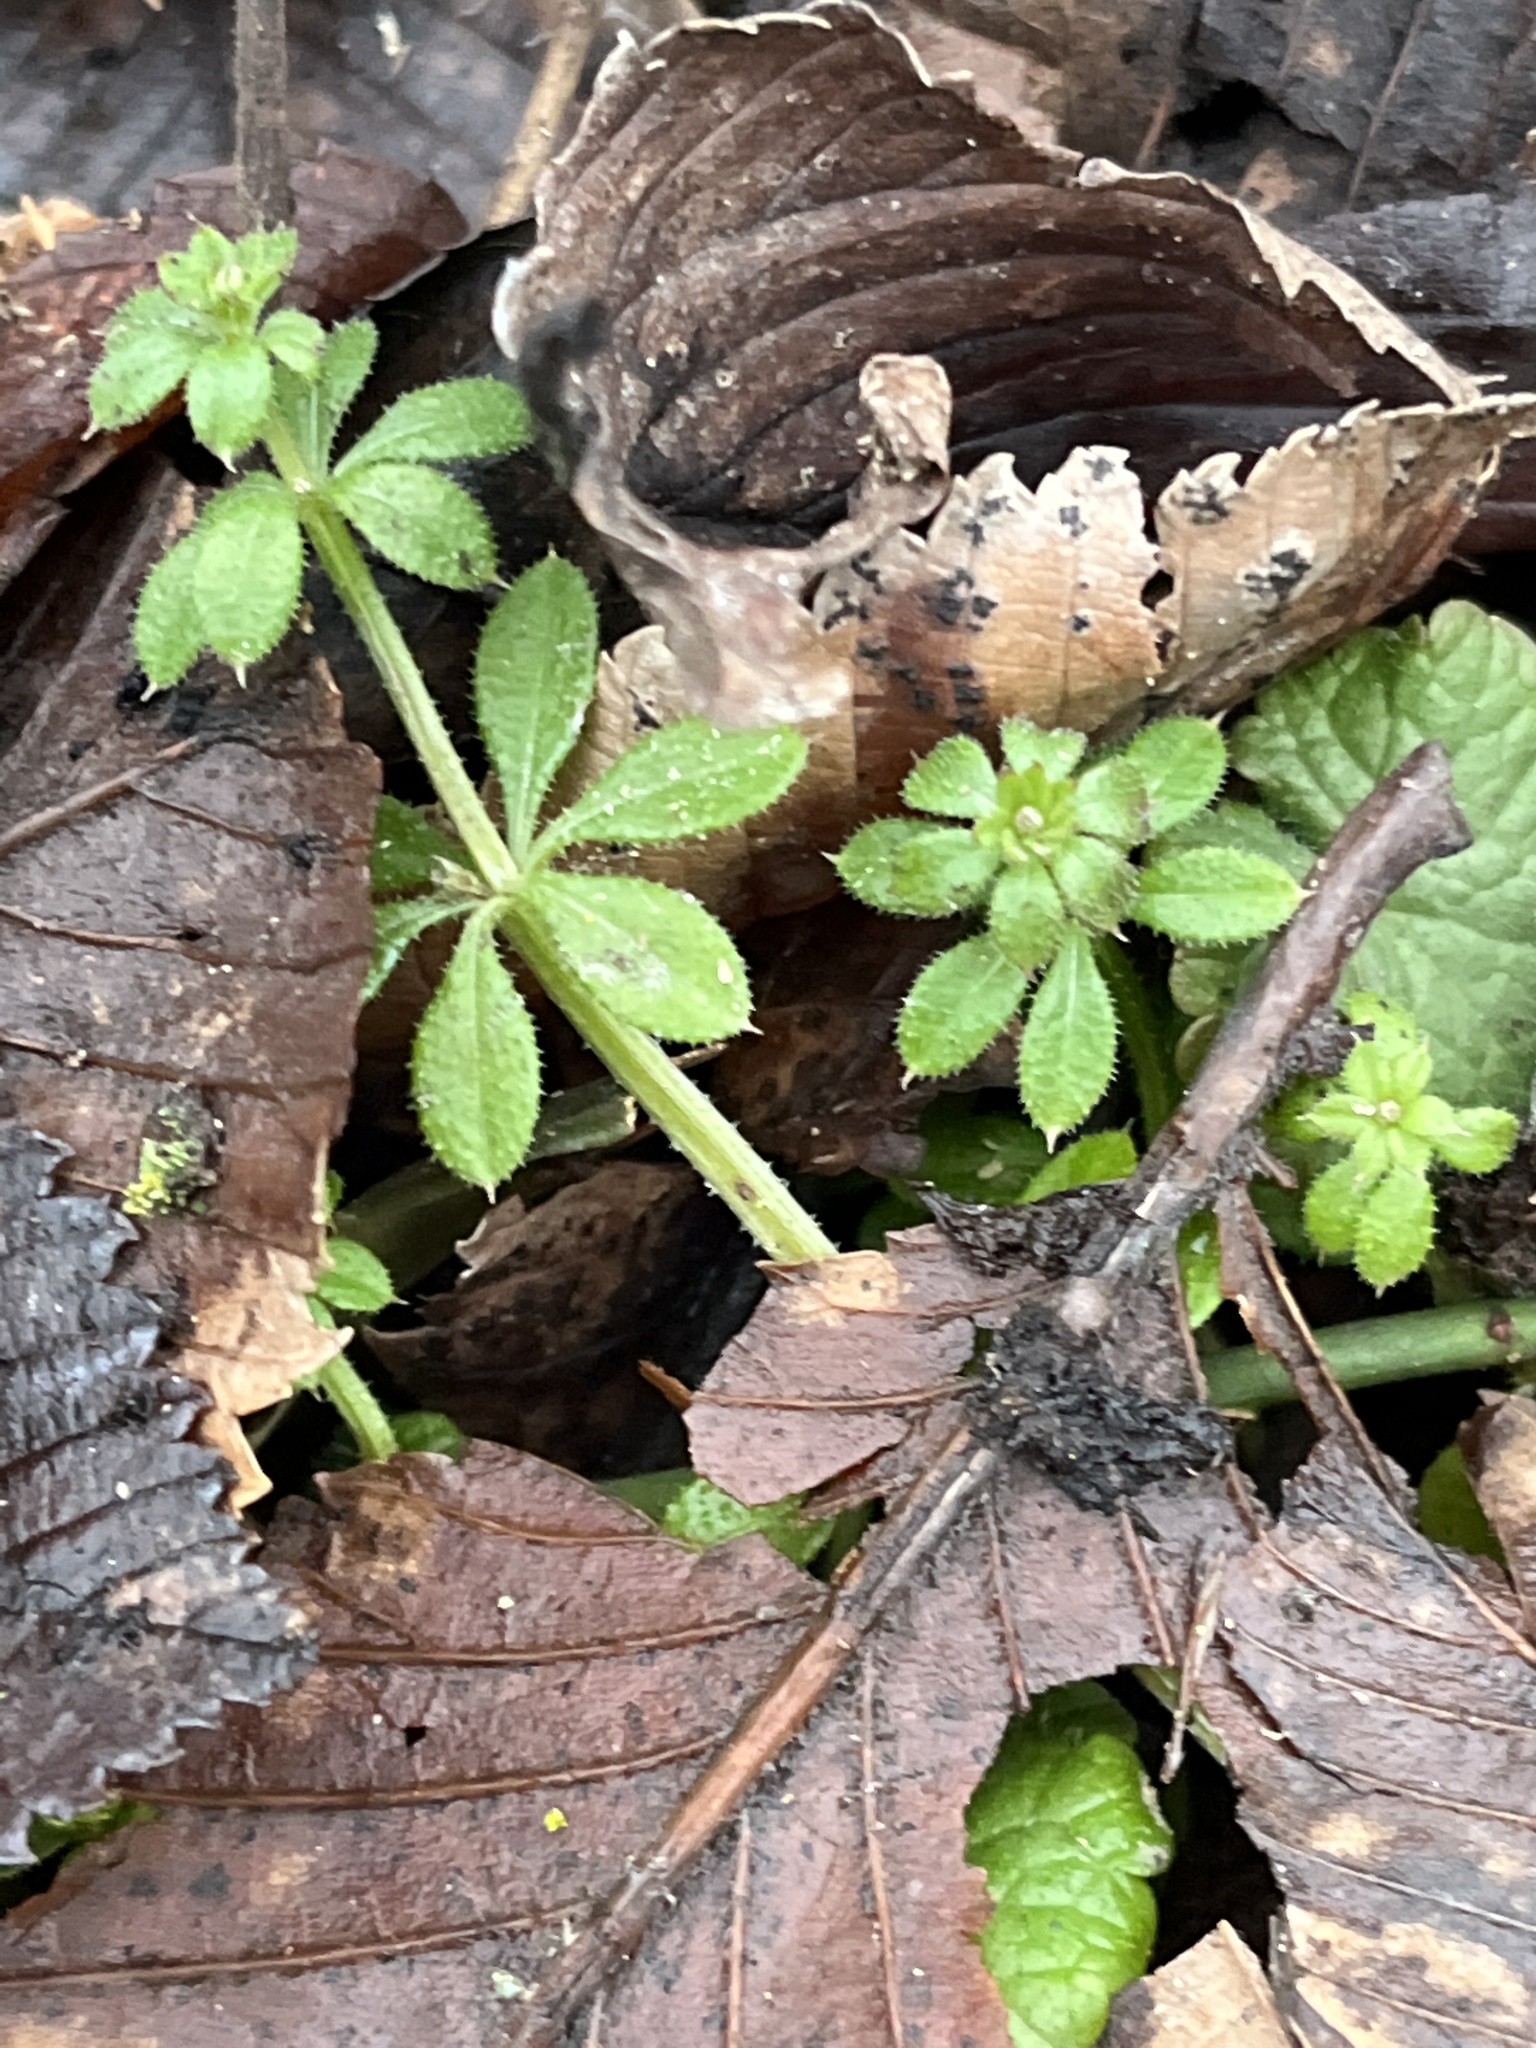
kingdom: Plantae
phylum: Tracheophyta
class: Magnoliopsida
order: Gentianales
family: Rubiaceae
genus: Galium
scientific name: Galium aparine
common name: Cleavers
